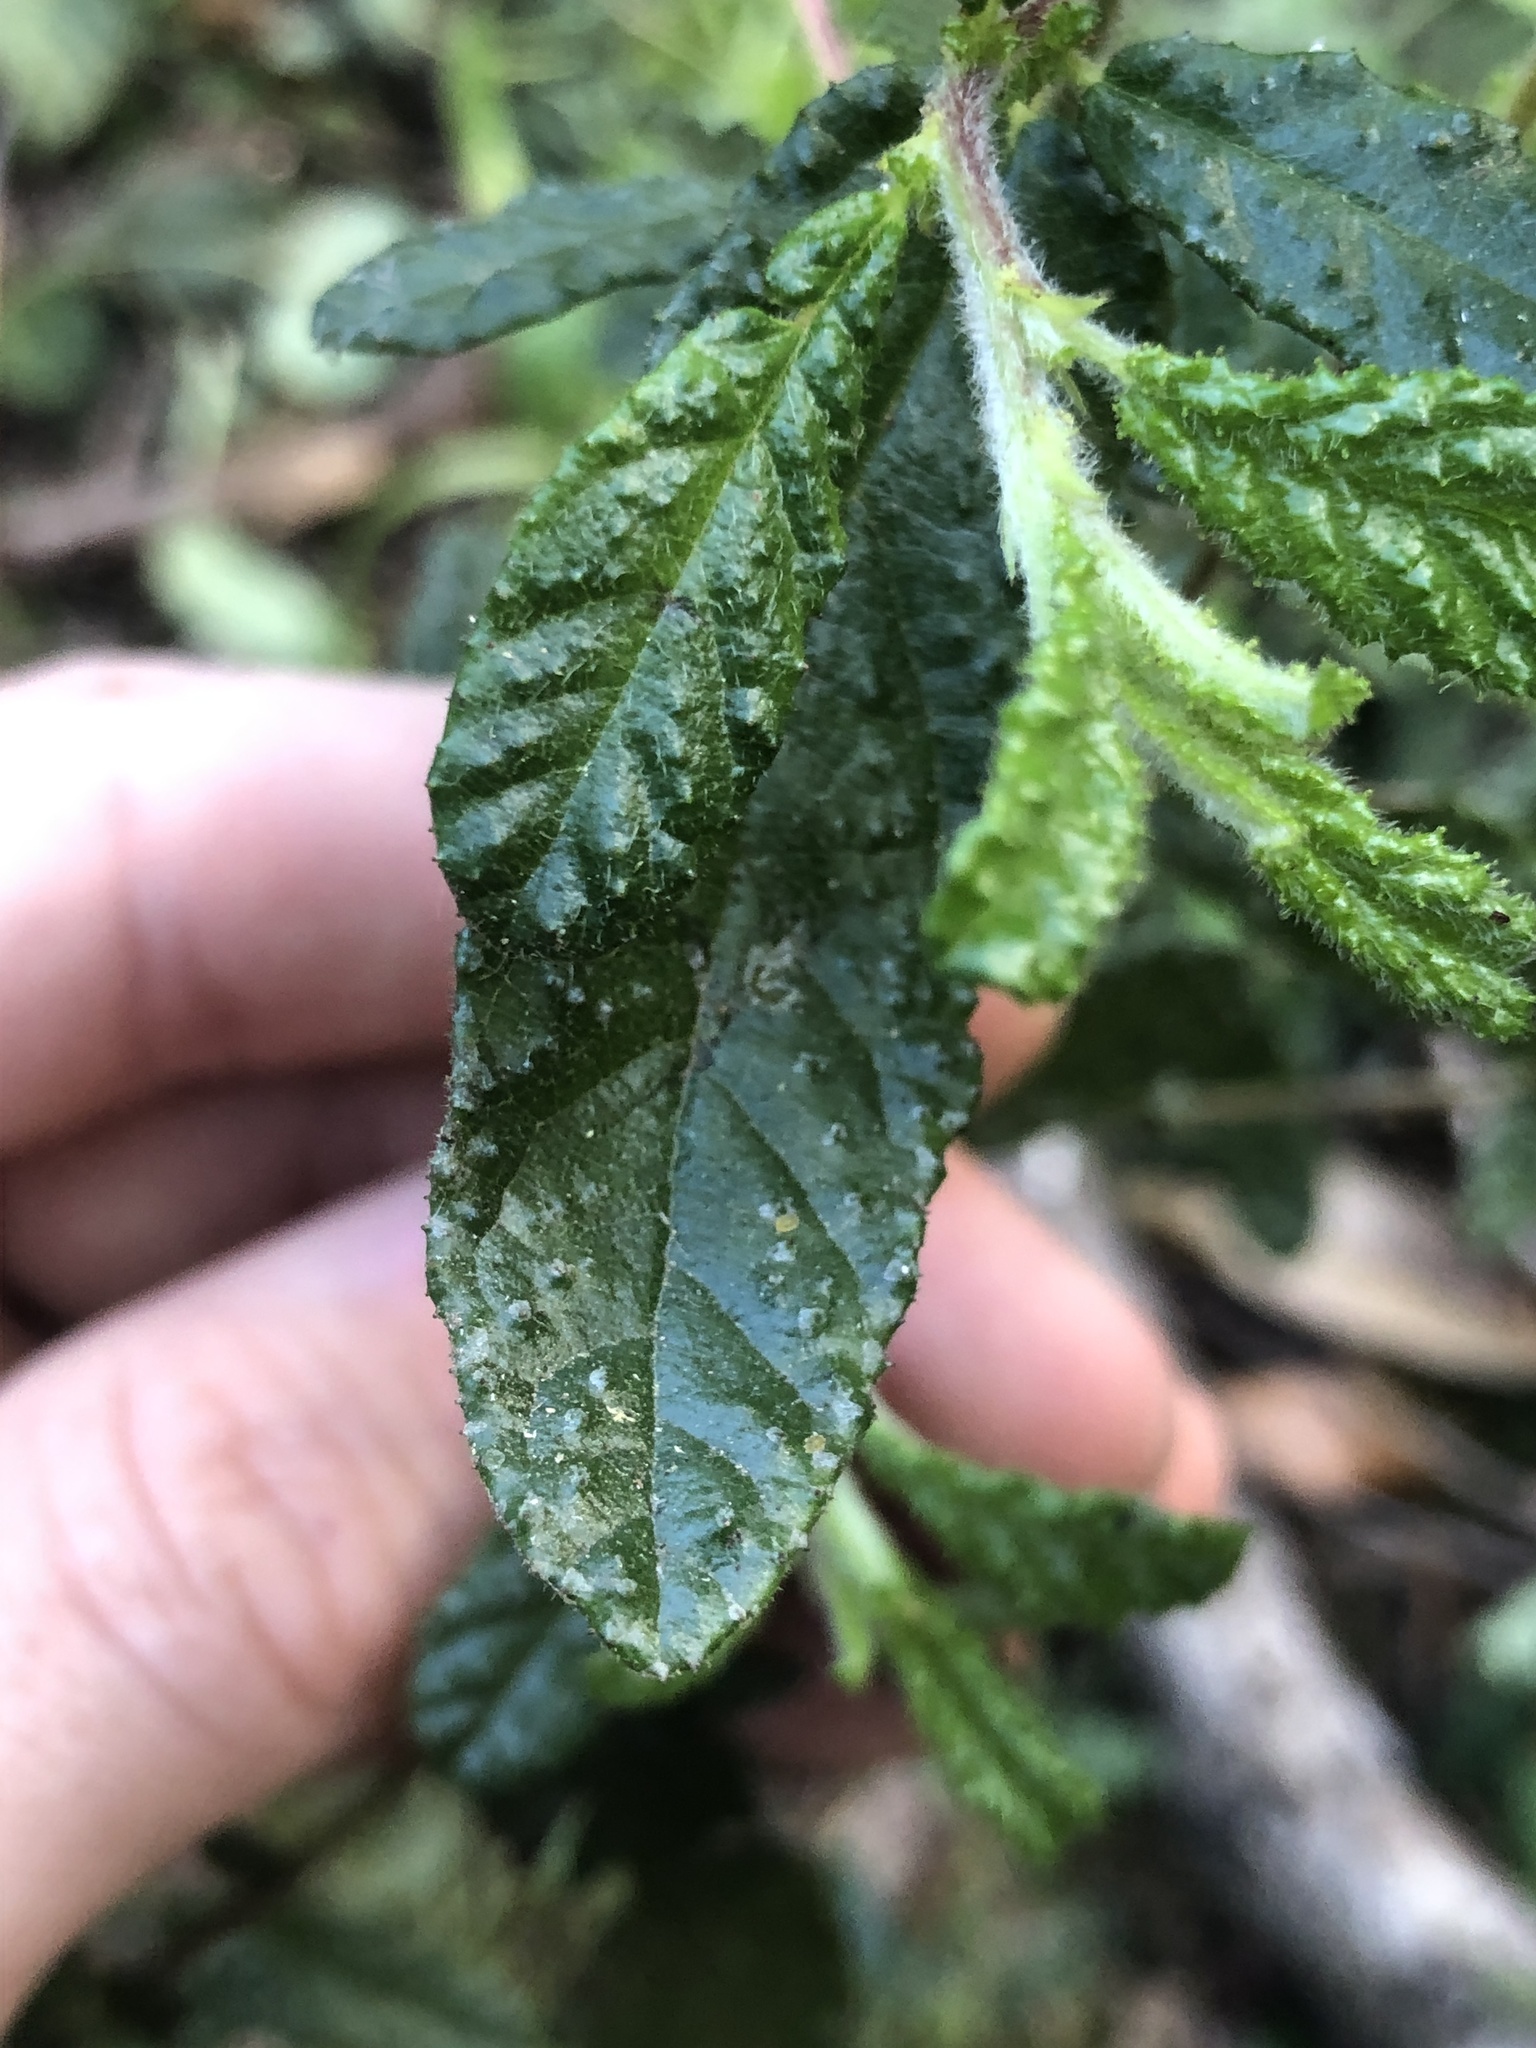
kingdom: Plantae
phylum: Tracheophyta
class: Magnoliopsida
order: Rosales
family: Rhamnaceae
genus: Ceanothus
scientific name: Ceanothus papillosus
